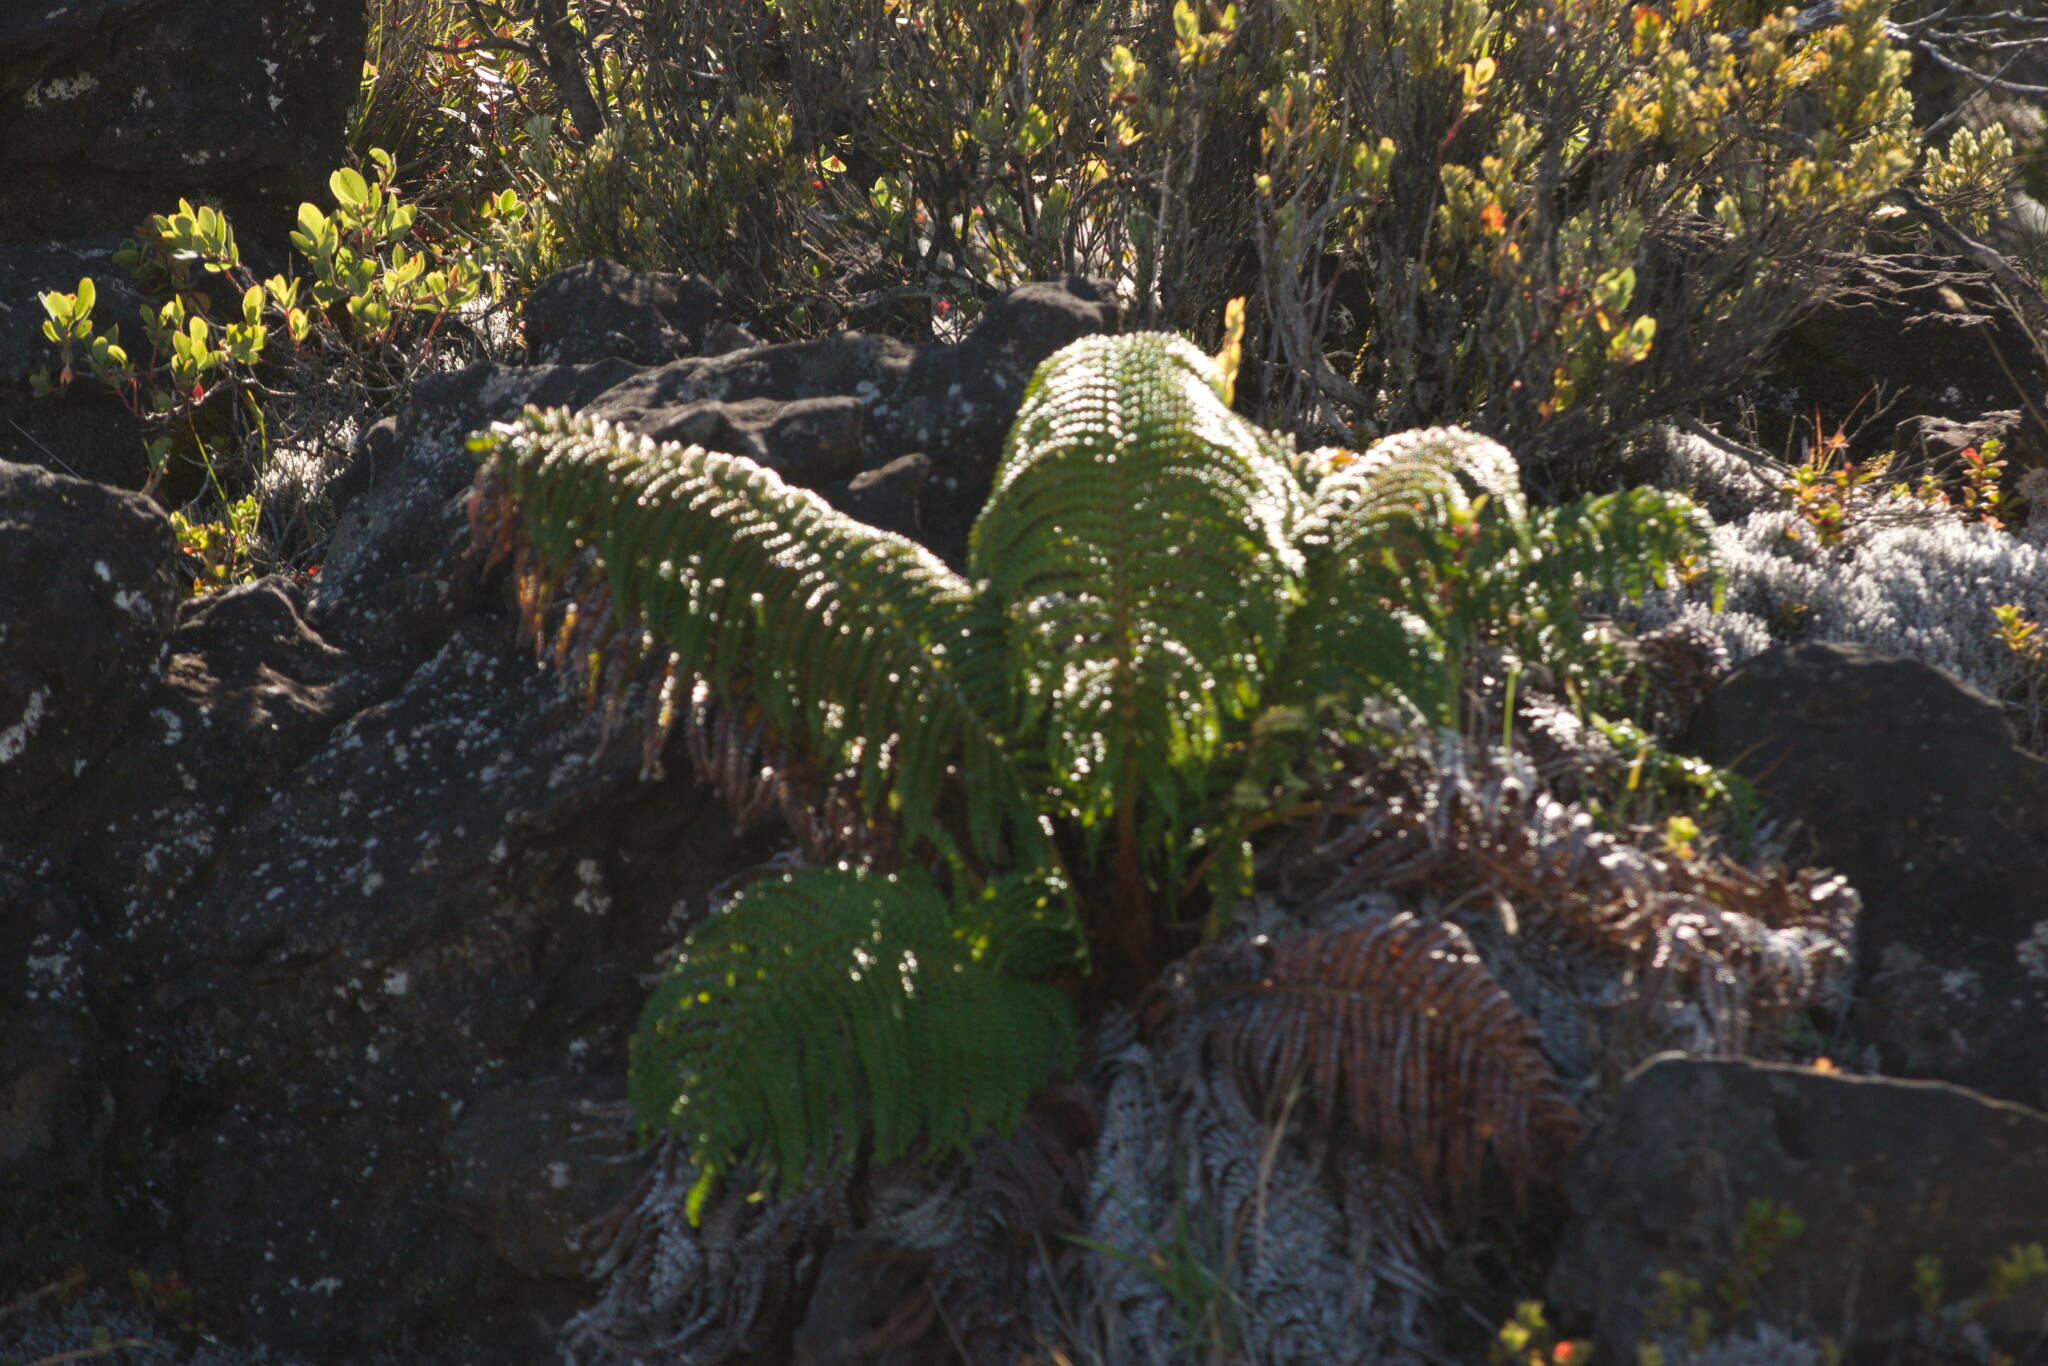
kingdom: Plantae
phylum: Tracheophyta
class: Polypodiopsida
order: Polypodiales
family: Blechnaceae
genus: Sadleria
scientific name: Sadleria cyatheoides
